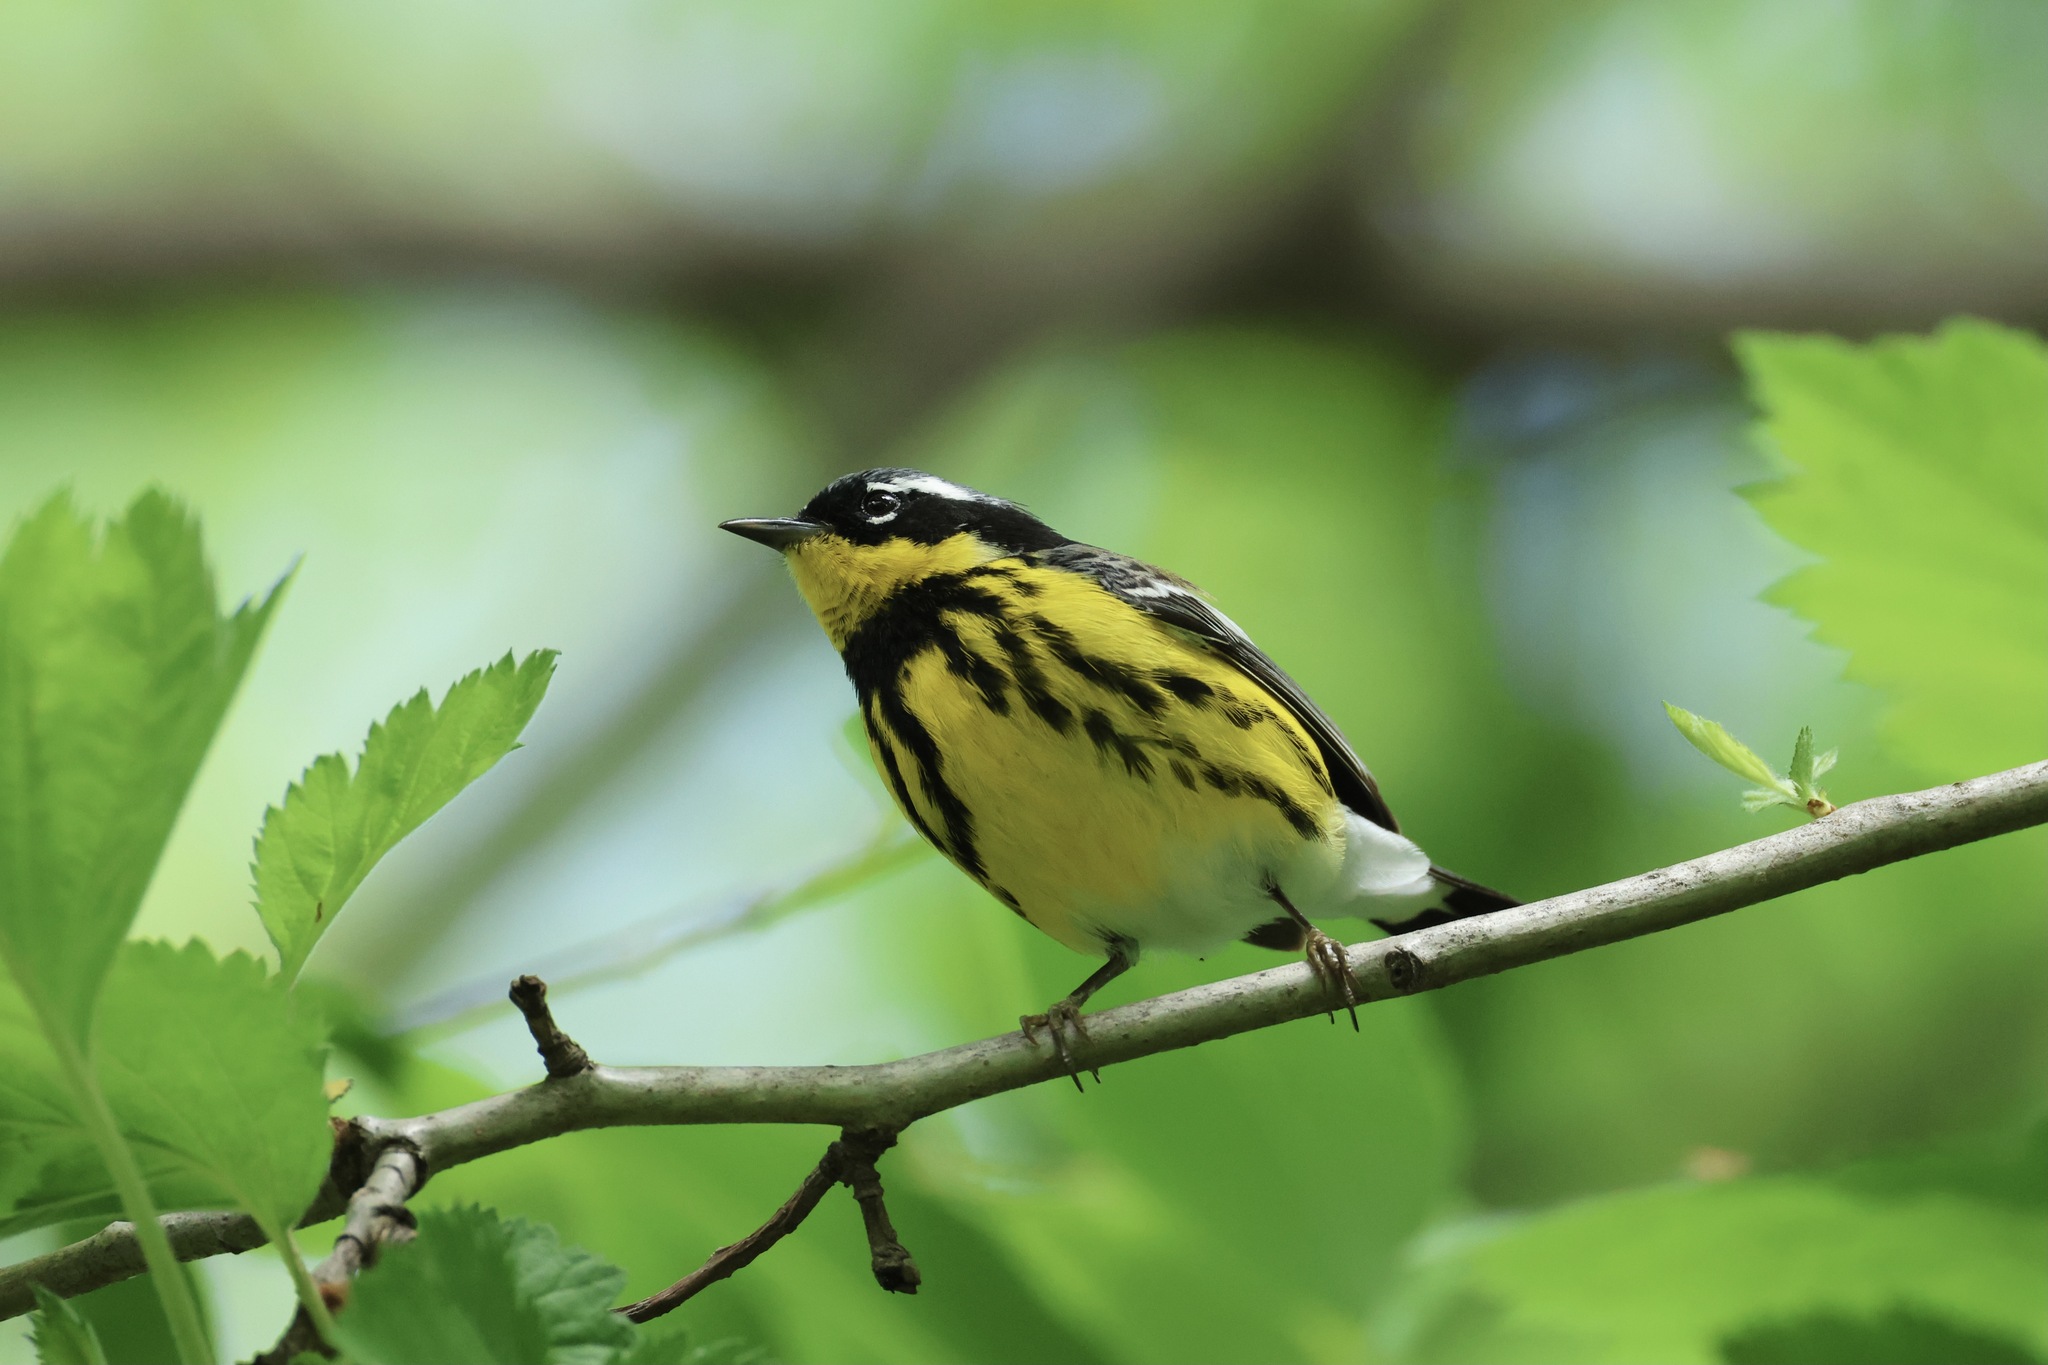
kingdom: Animalia
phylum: Chordata
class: Aves
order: Passeriformes
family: Parulidae
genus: Setophaga
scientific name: Setophaga magnolia
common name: Magnolia warbler
